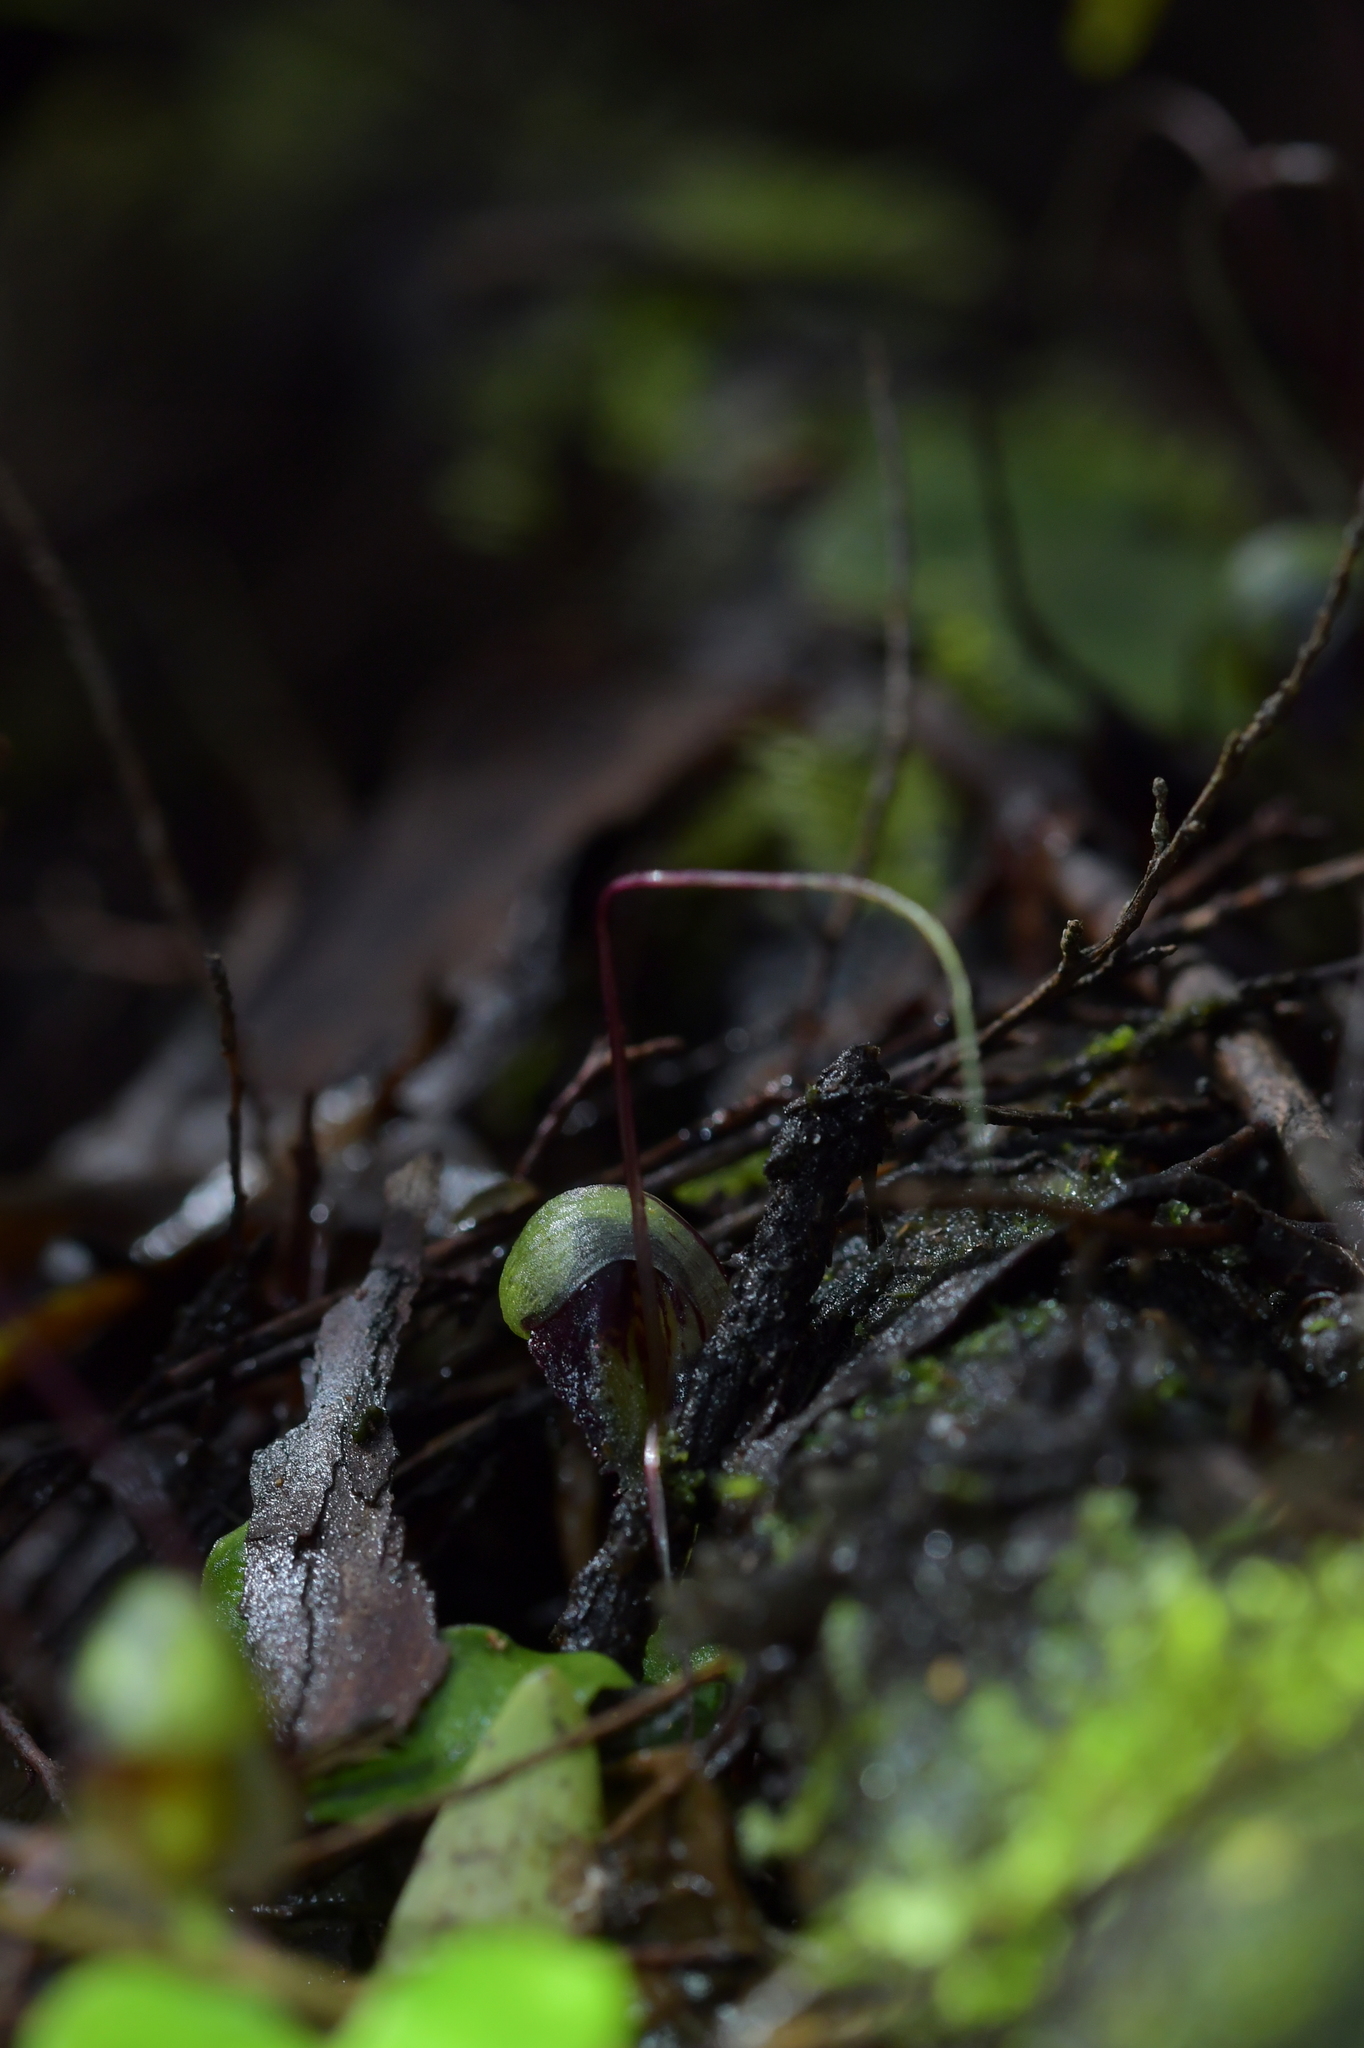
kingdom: Plantae
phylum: Tracheophyta
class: Liliopsida
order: Asparagales
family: Orchidaceae
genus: Corybas
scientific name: Corybas vitreus
